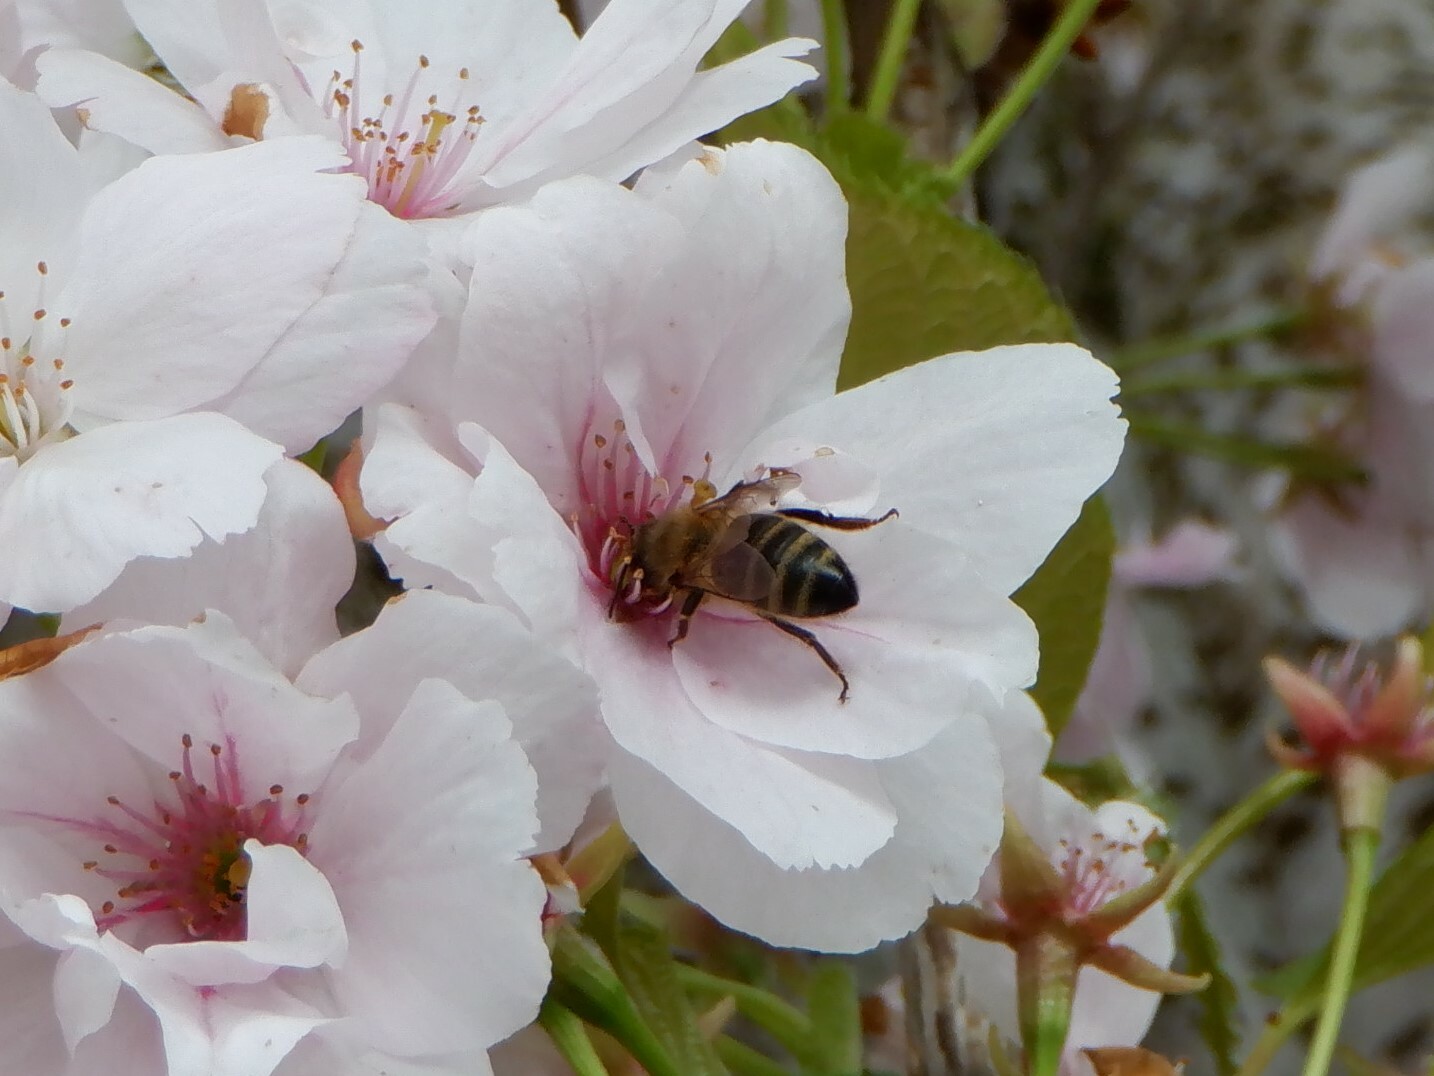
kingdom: Animalia
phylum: Arthropoda
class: Insecta
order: Hymenoptera
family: Apidae
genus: Apis
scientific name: Apis mellifera
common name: Honey bee
